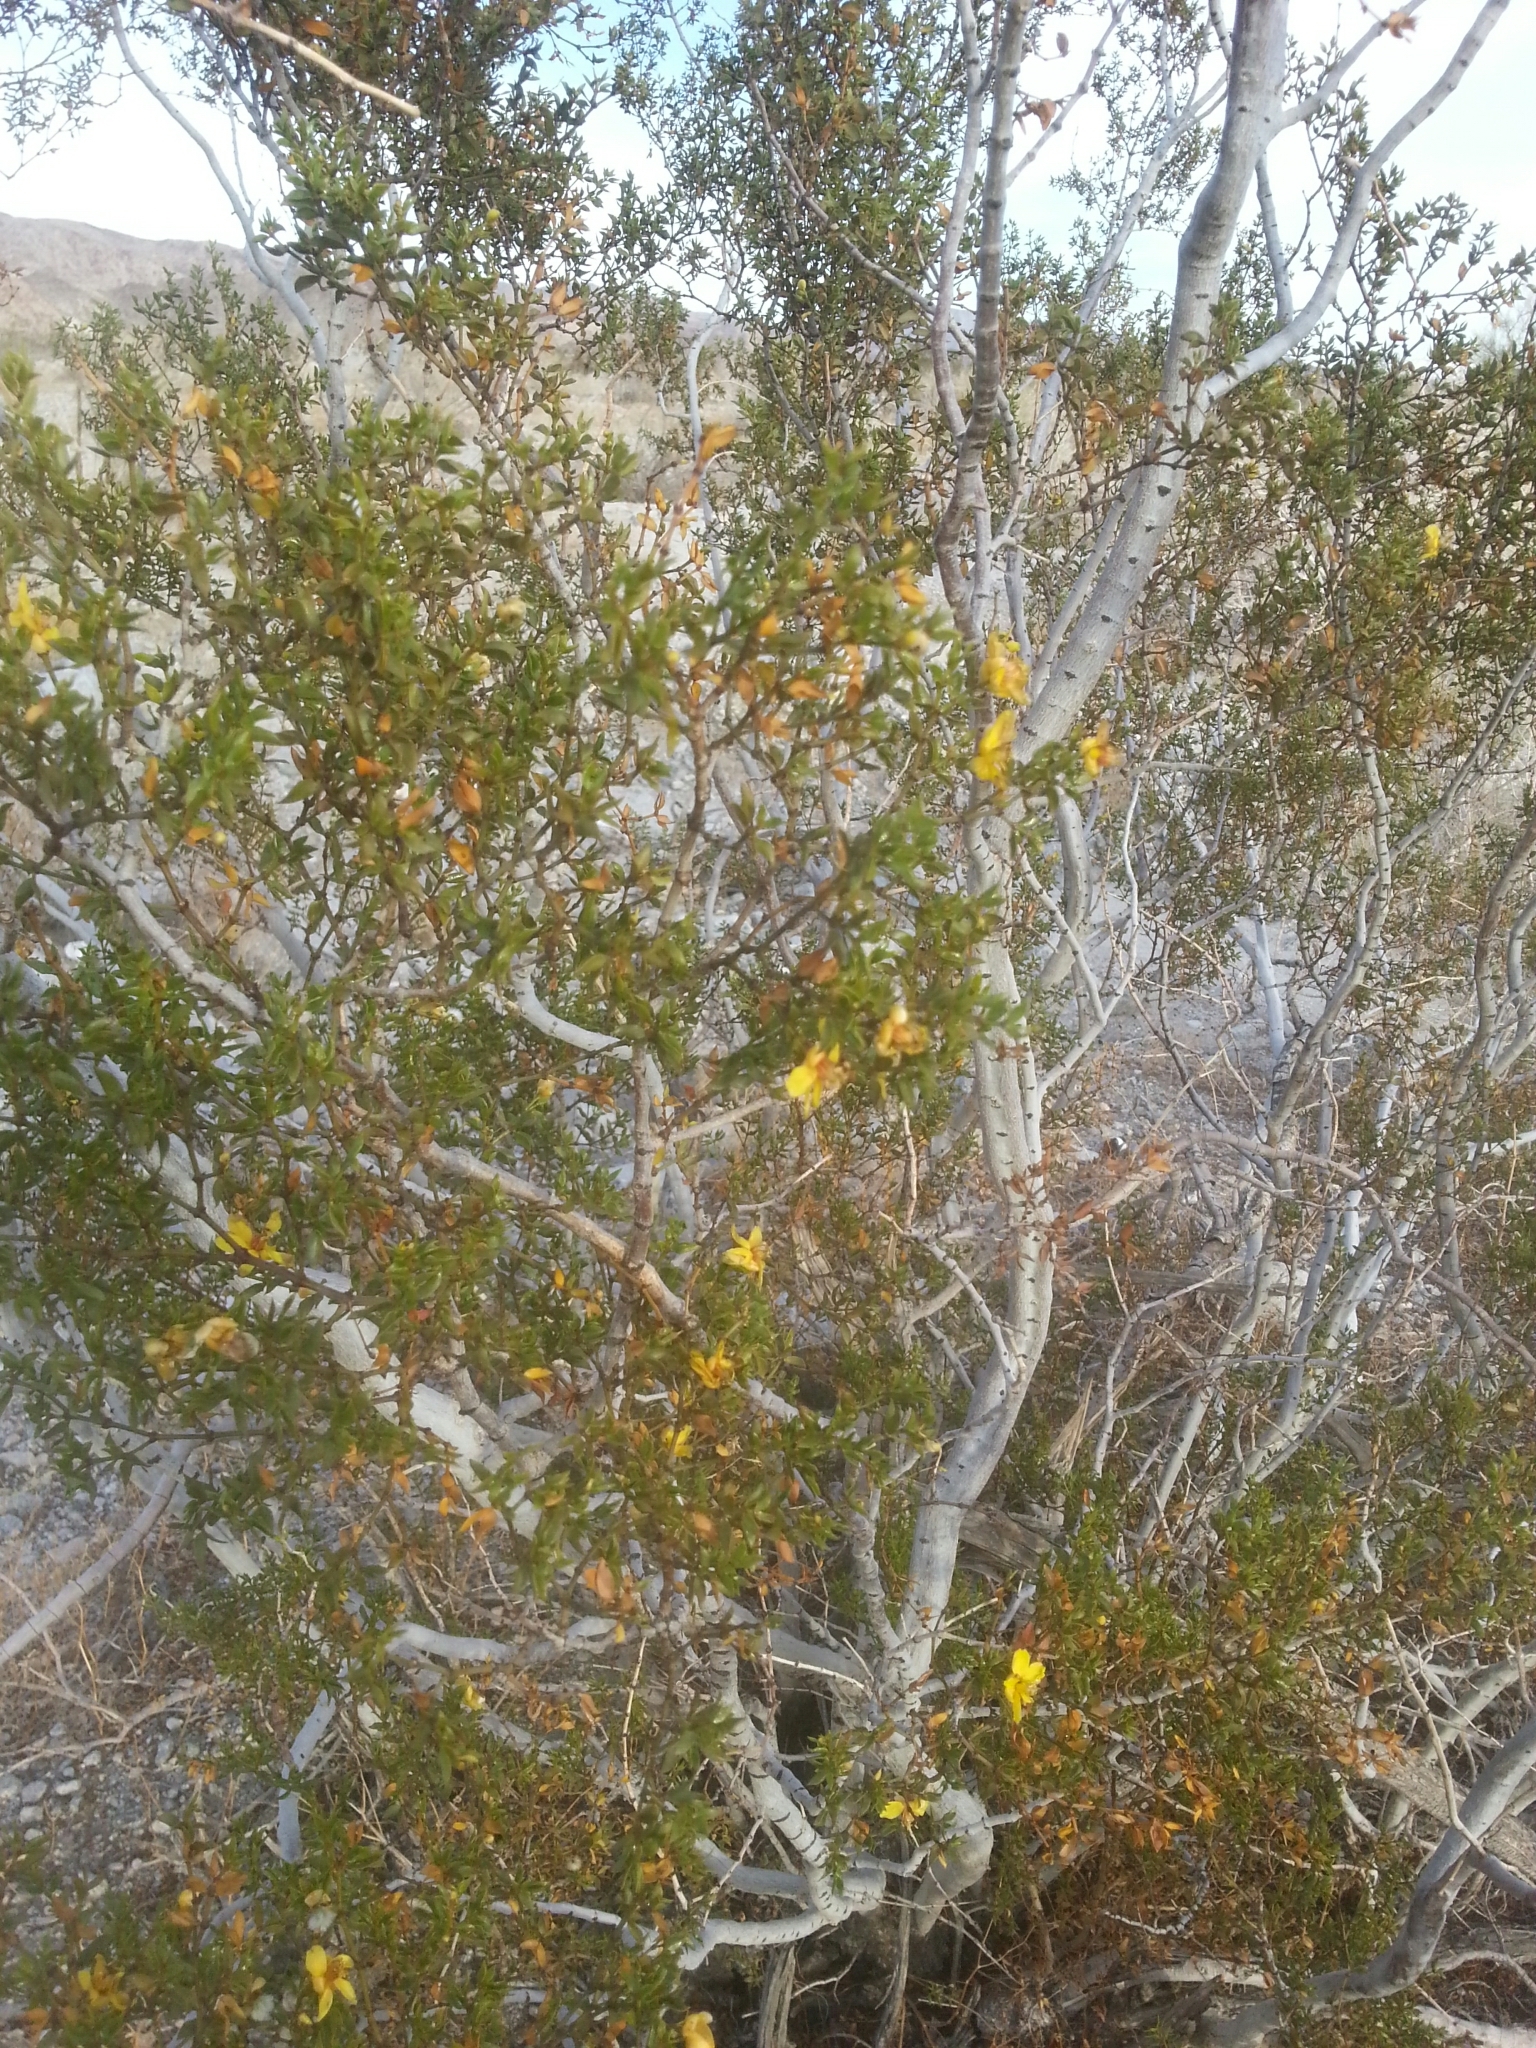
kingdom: Plantae
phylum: Tracheophyta
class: Magnoliopsida
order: Zygophyllales
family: Zygophyllaceae
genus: Larrea
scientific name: Larrea tridentata
